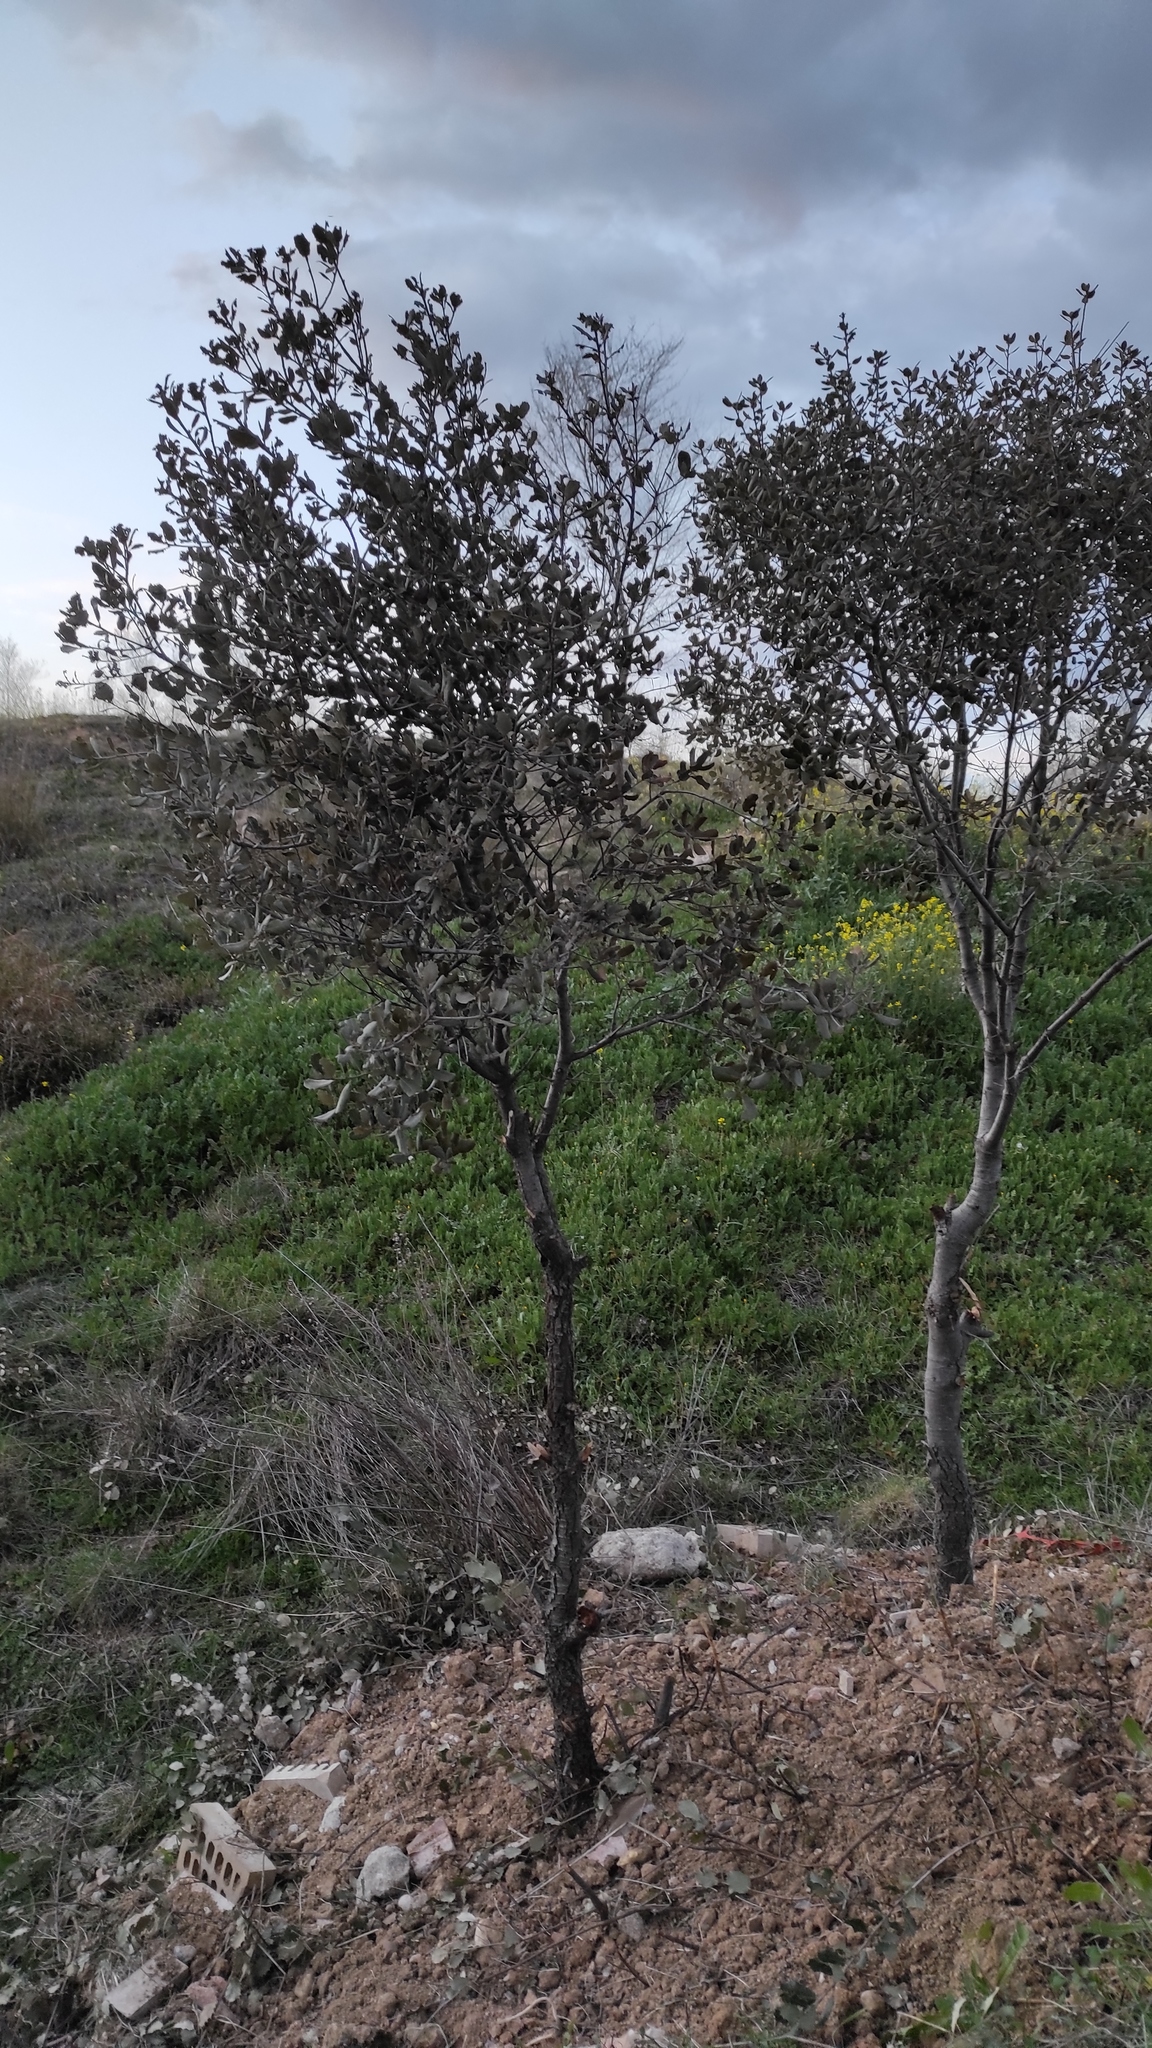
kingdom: Plantae
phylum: Tracheophyta
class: Magnoliopsida
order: Fagales
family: Fagaceae
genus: Quercus
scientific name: Quercus rotundifolia
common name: Holm oak
